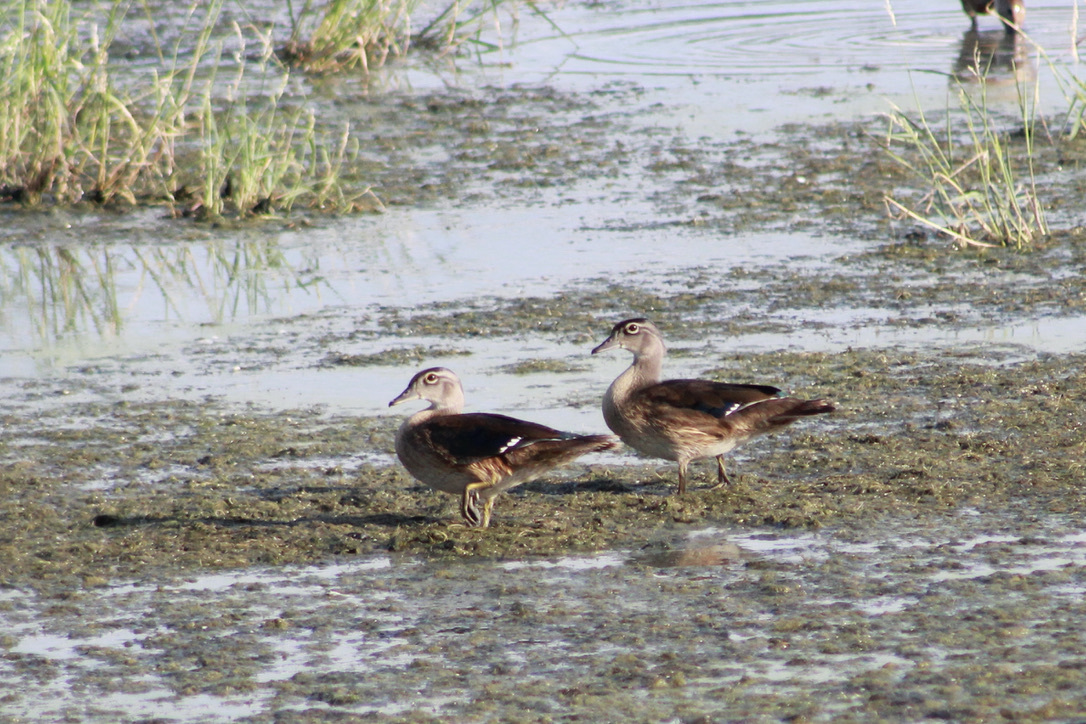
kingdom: Animalia
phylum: Chordata
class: Aves
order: Anseriformes
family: Anatidae
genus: Aix
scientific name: Aix sponsa
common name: Wood duck
